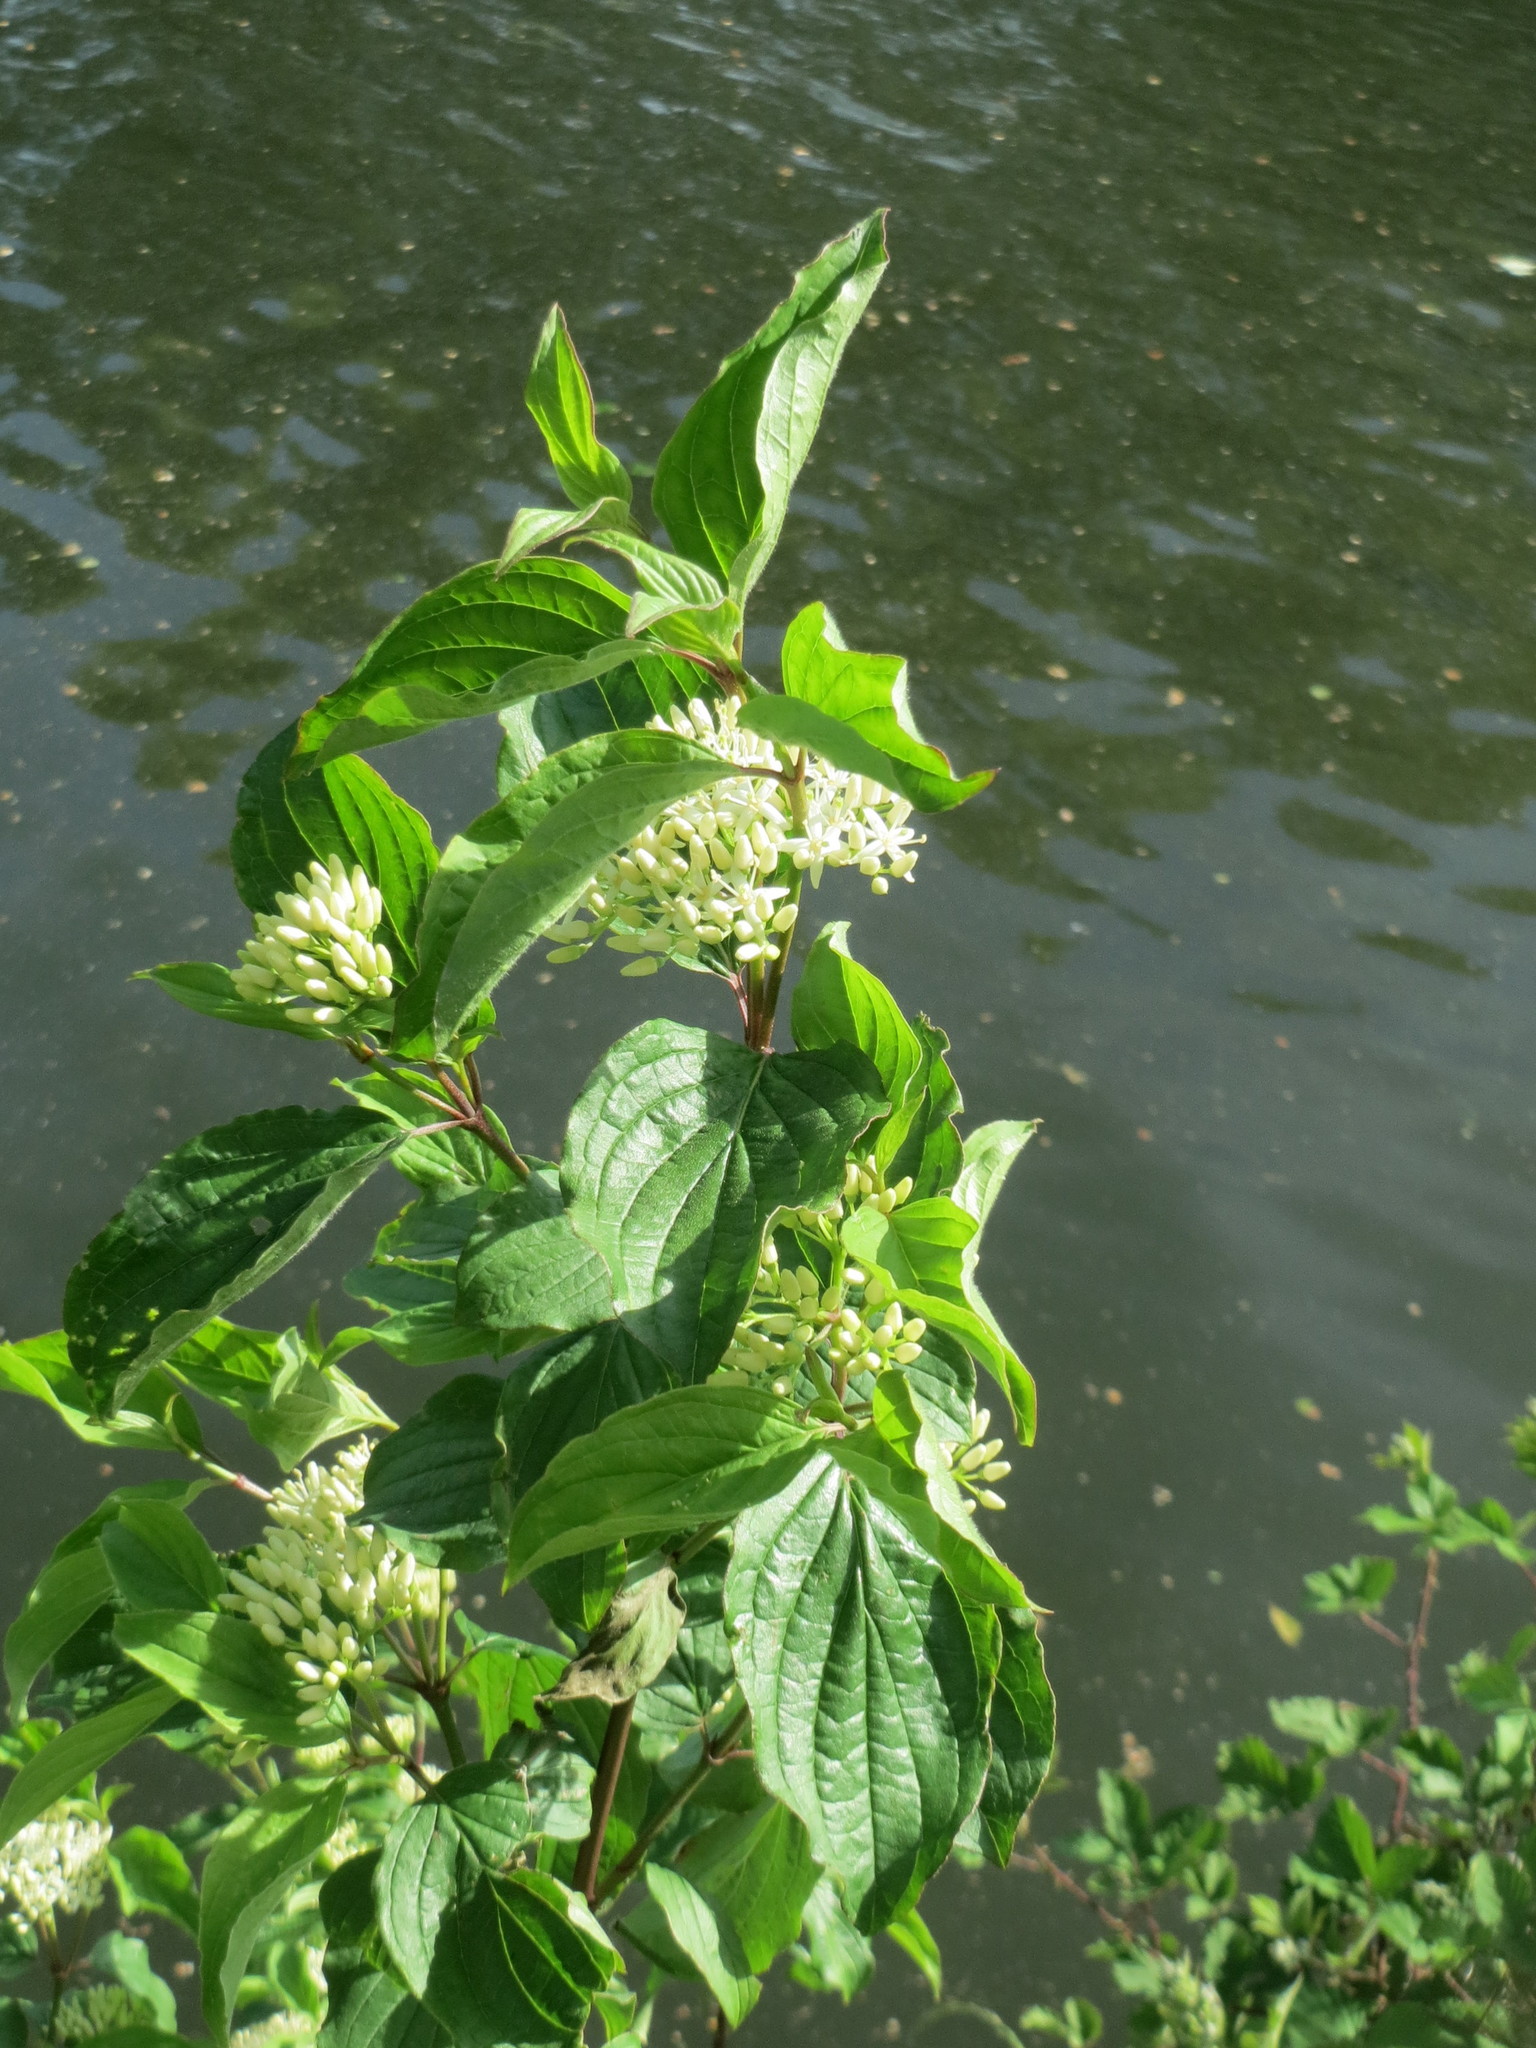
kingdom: Plantae
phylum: Tracheophyta
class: Magnoliopsida
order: Cornales
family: Cornaceae
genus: Cornus
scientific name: Cornus sanguinea
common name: Dogwood
